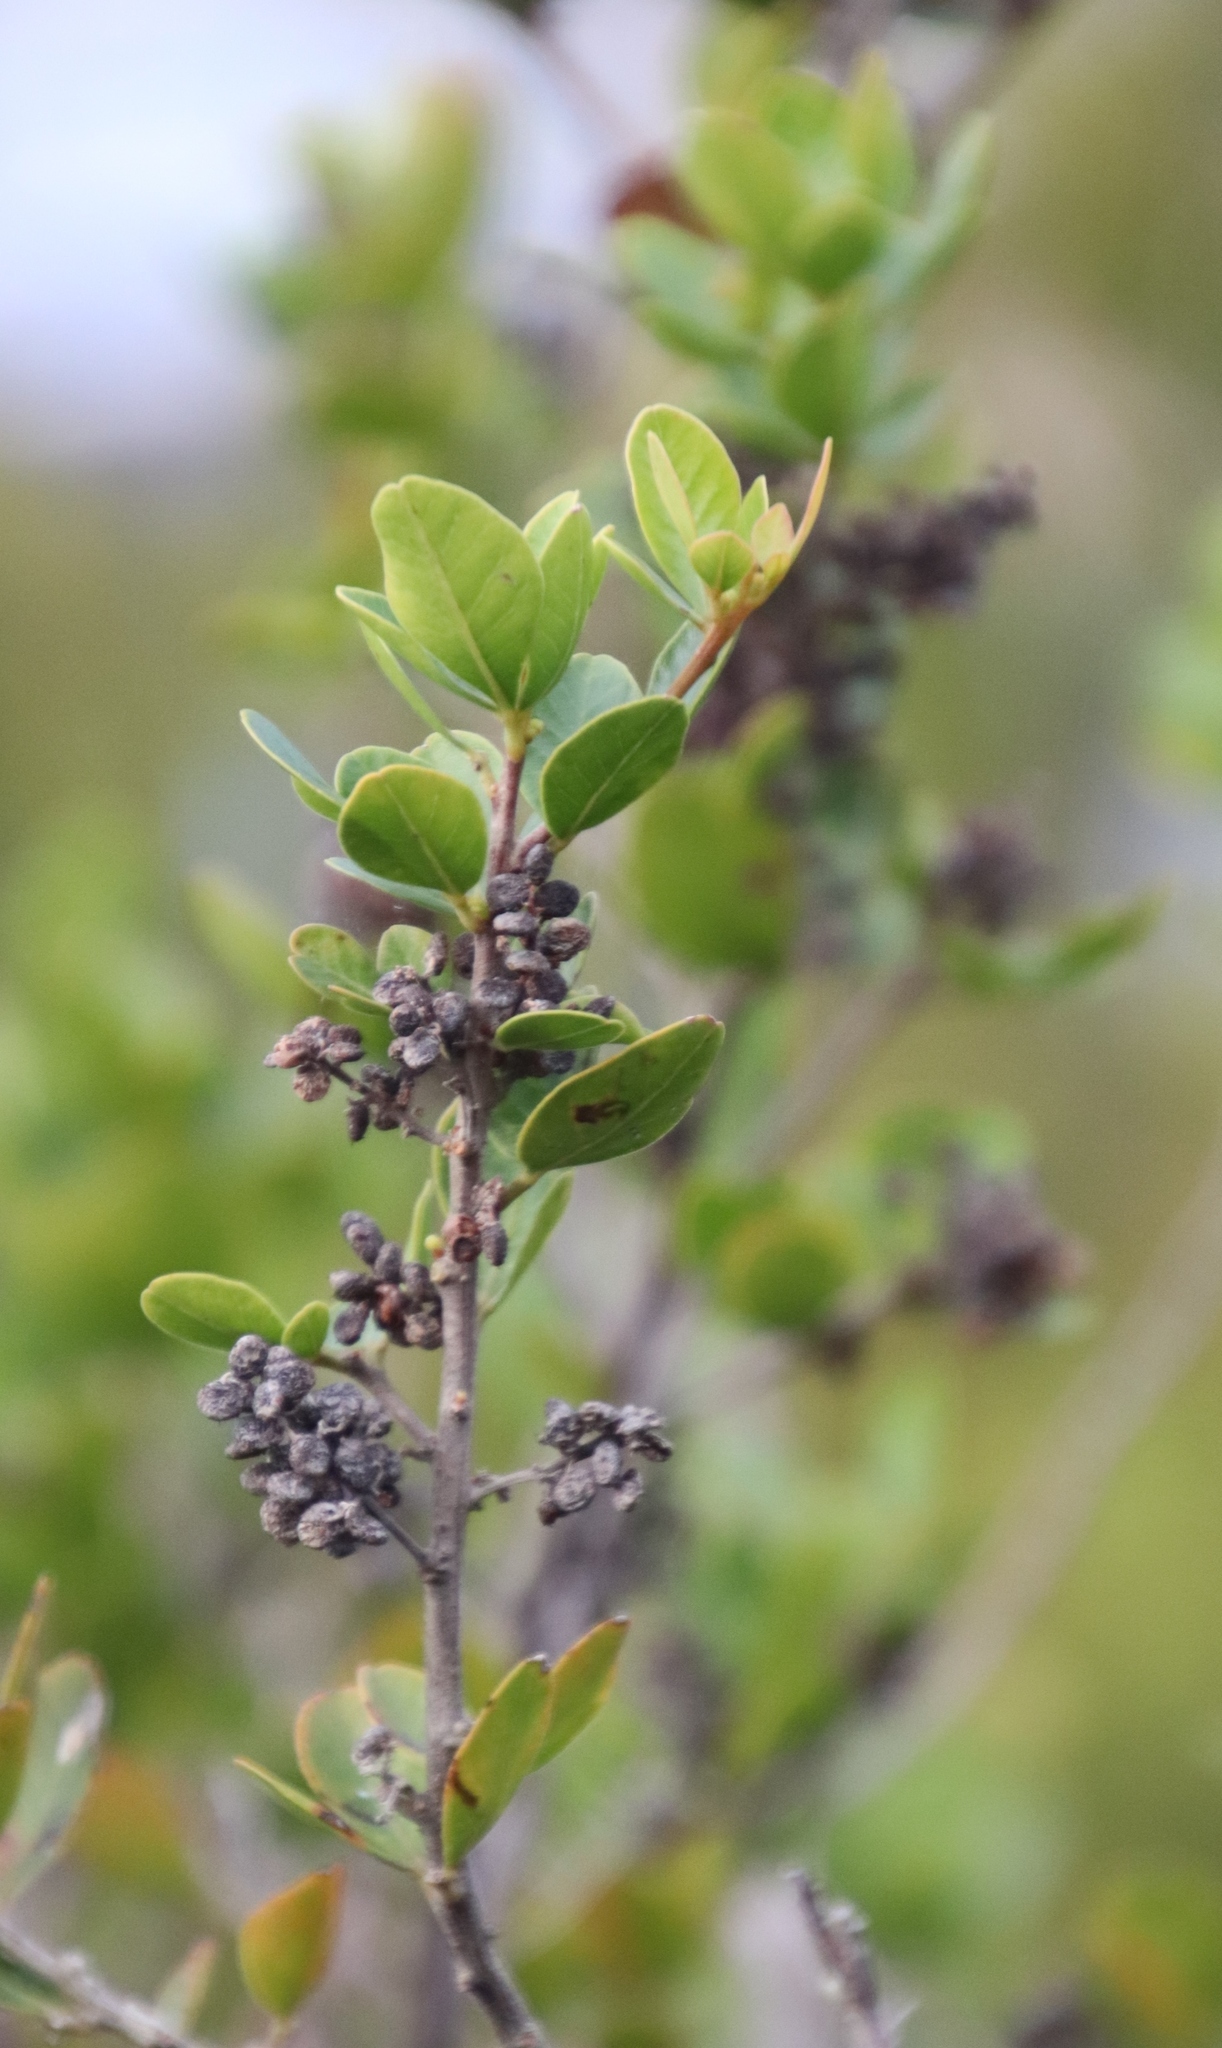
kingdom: Plantae
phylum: Tracheophyta
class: Magnoliopsida
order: Sapindales
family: Anacardiaceae
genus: Searsia
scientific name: Searsia lucida
